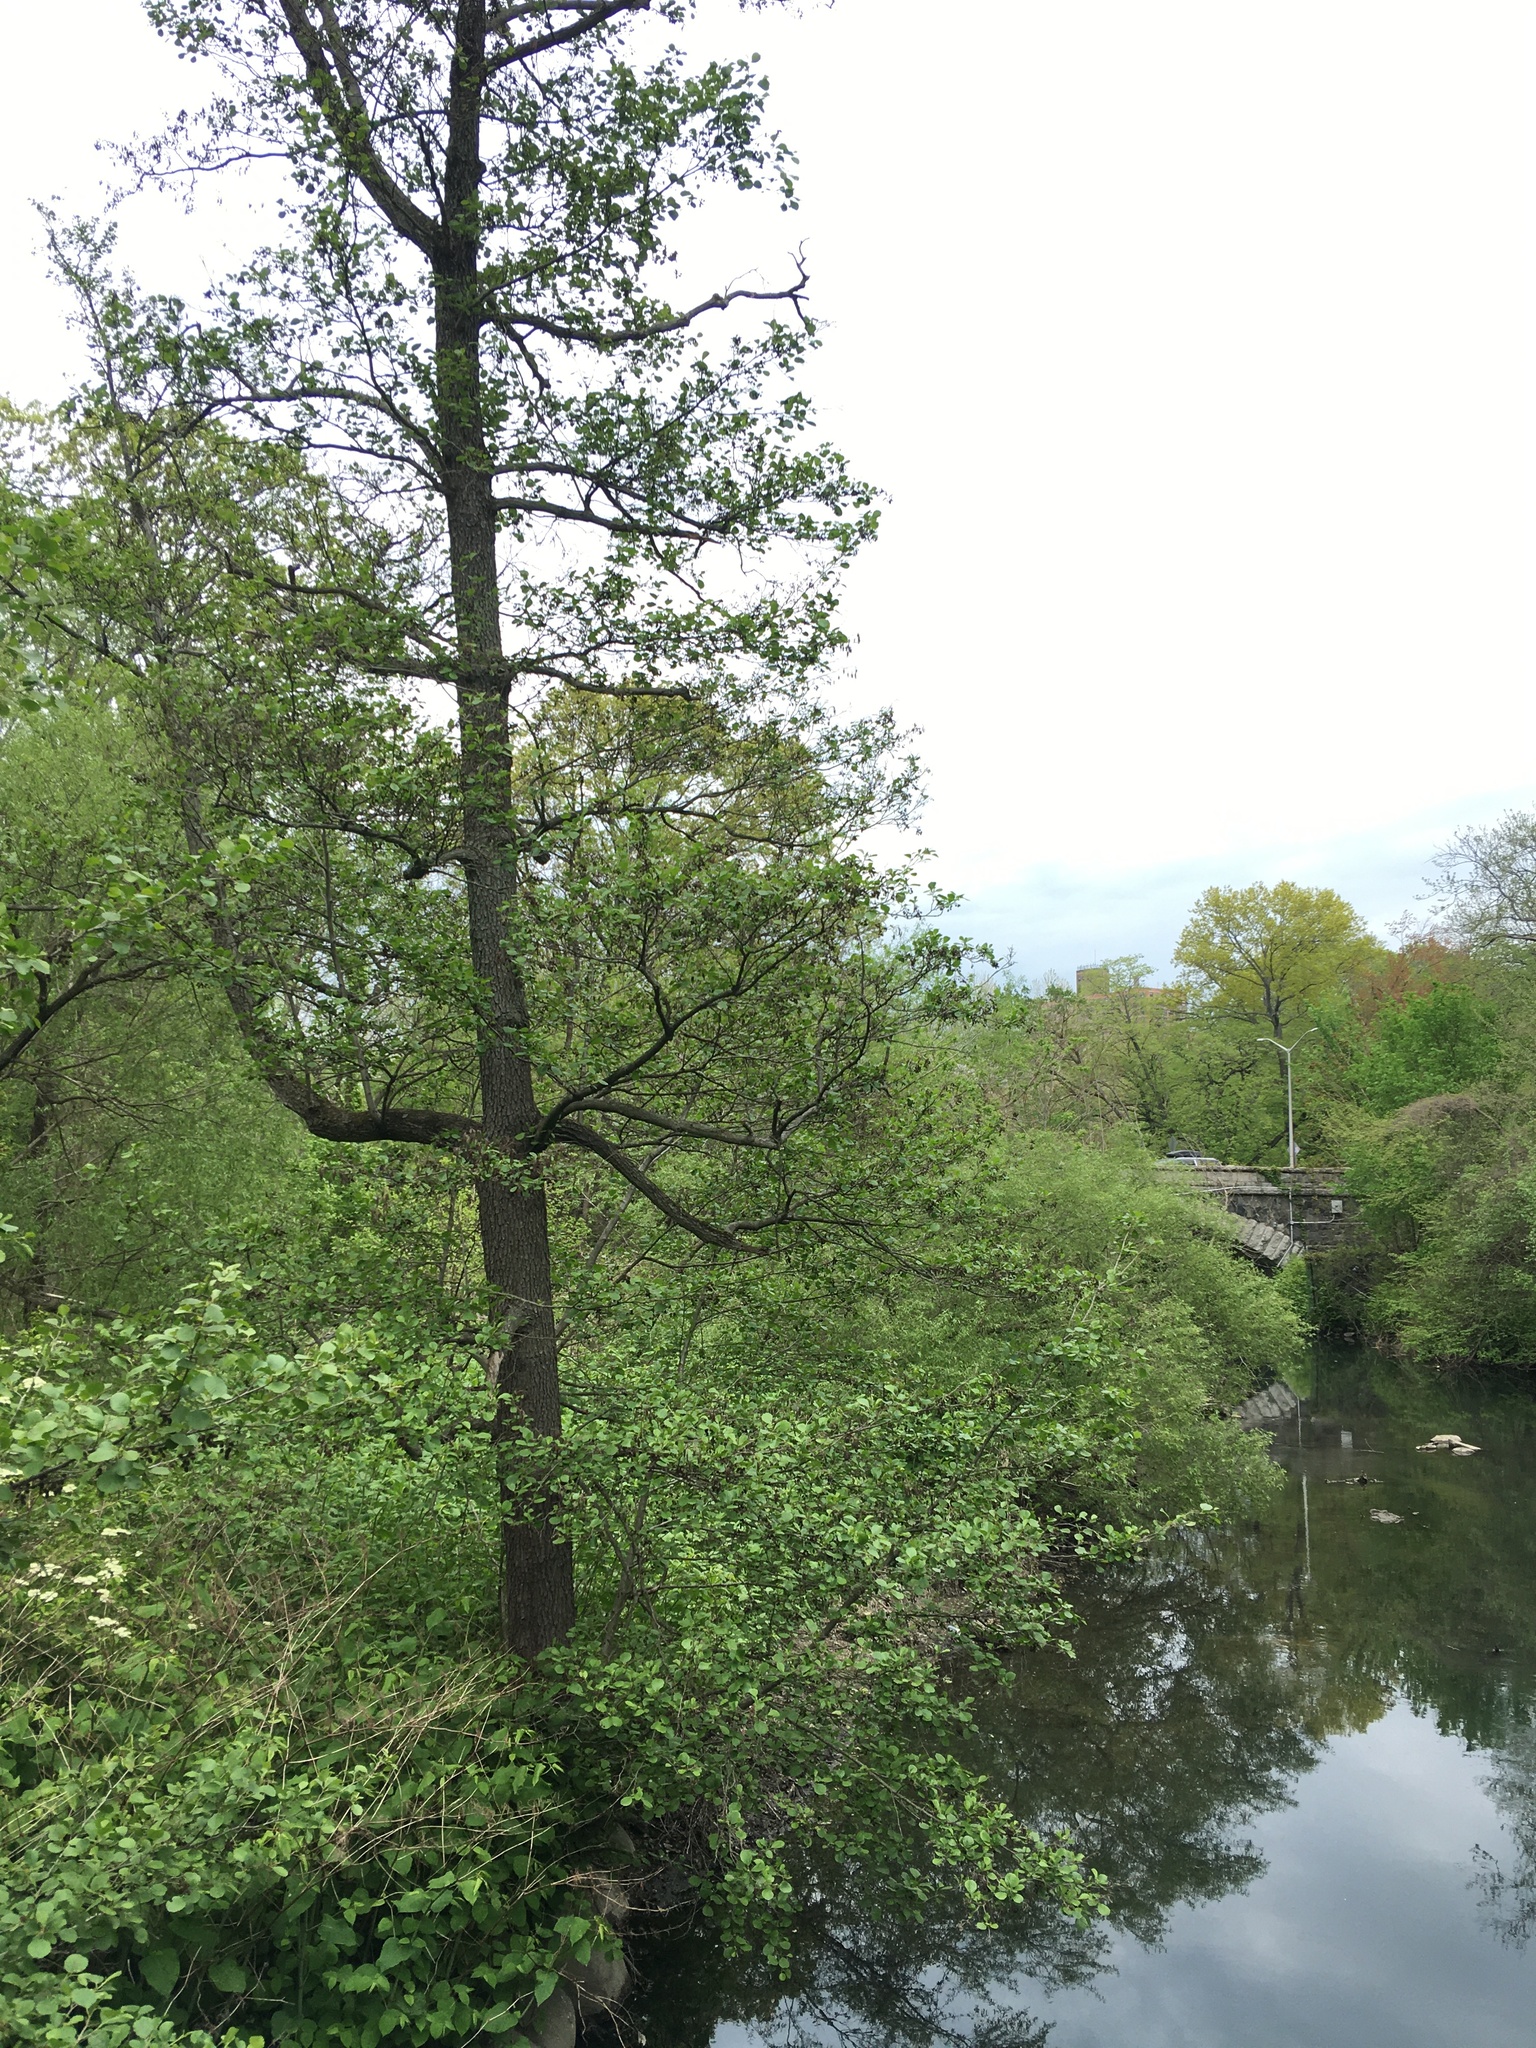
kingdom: Plantae
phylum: Tracheophyta
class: Magnoliopsida
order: Fagales
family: Betulaceae
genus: Alnus
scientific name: Alnus glutinosa
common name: Black alder
